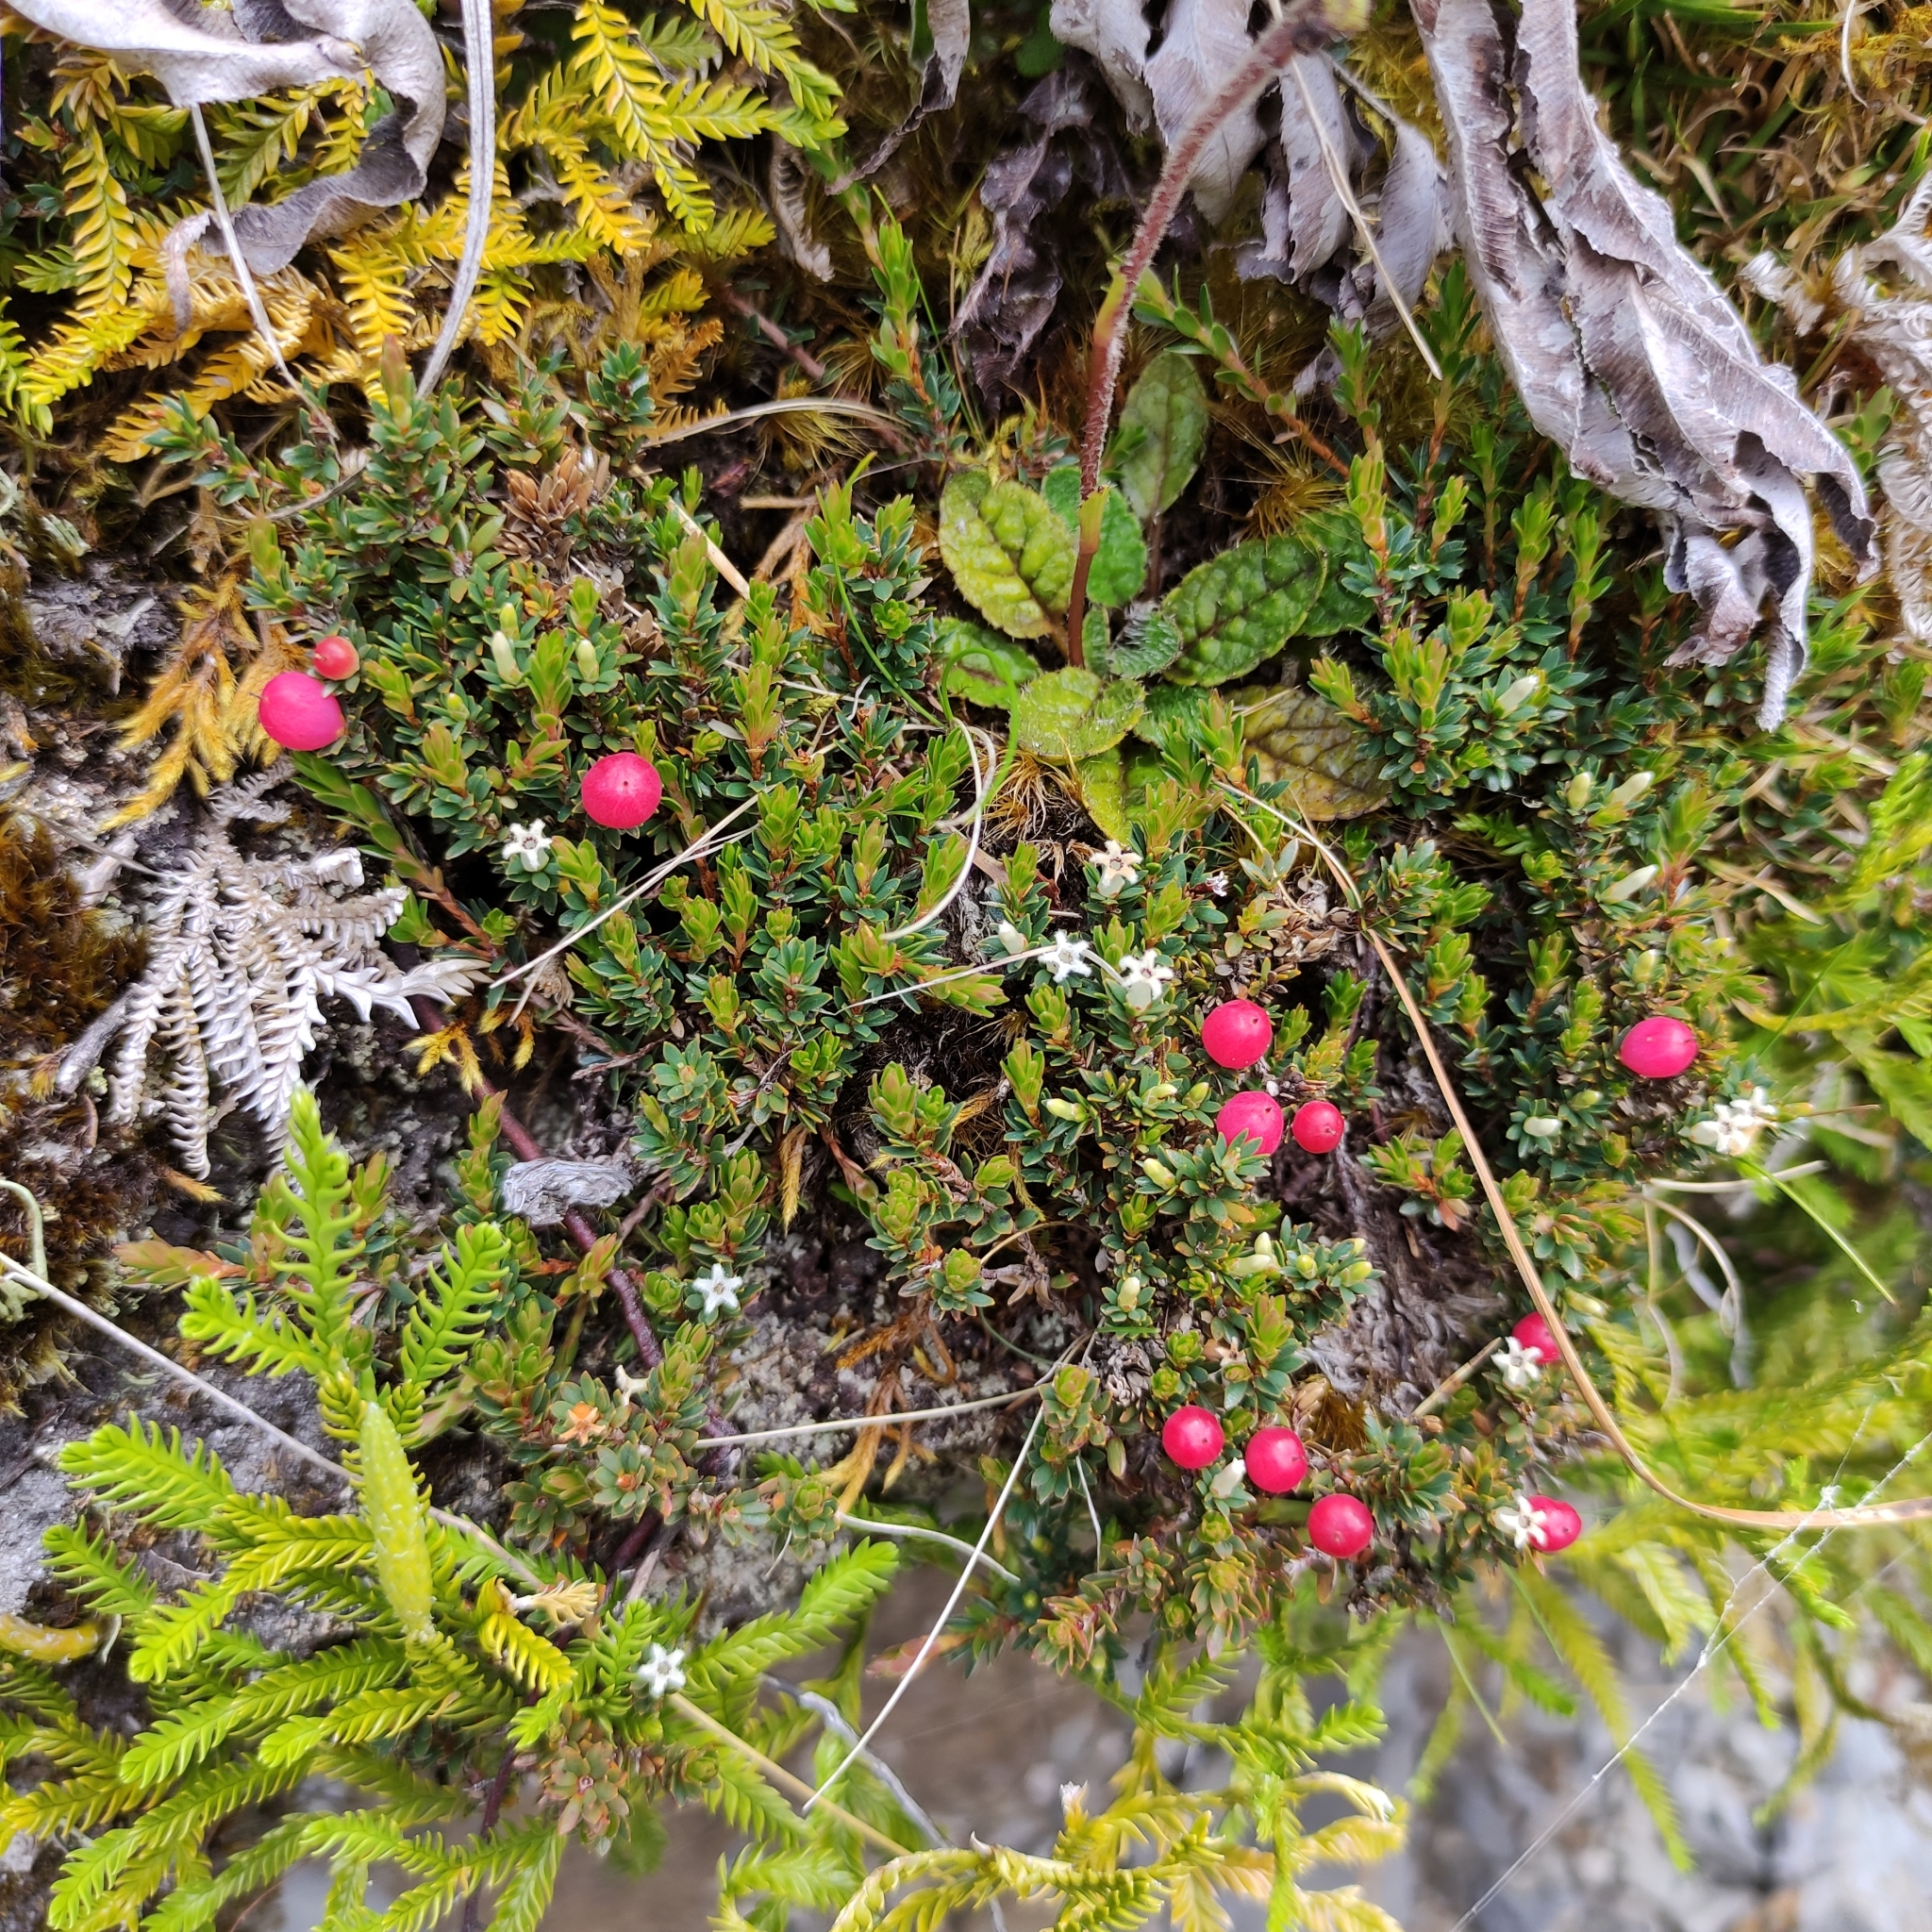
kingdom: Plantae
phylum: Tracheophyta
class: Magnoliopsida
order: Ericales
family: Ericaceae
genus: Pentachondra
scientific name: Pentachondra pumila
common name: Carpet-heath
